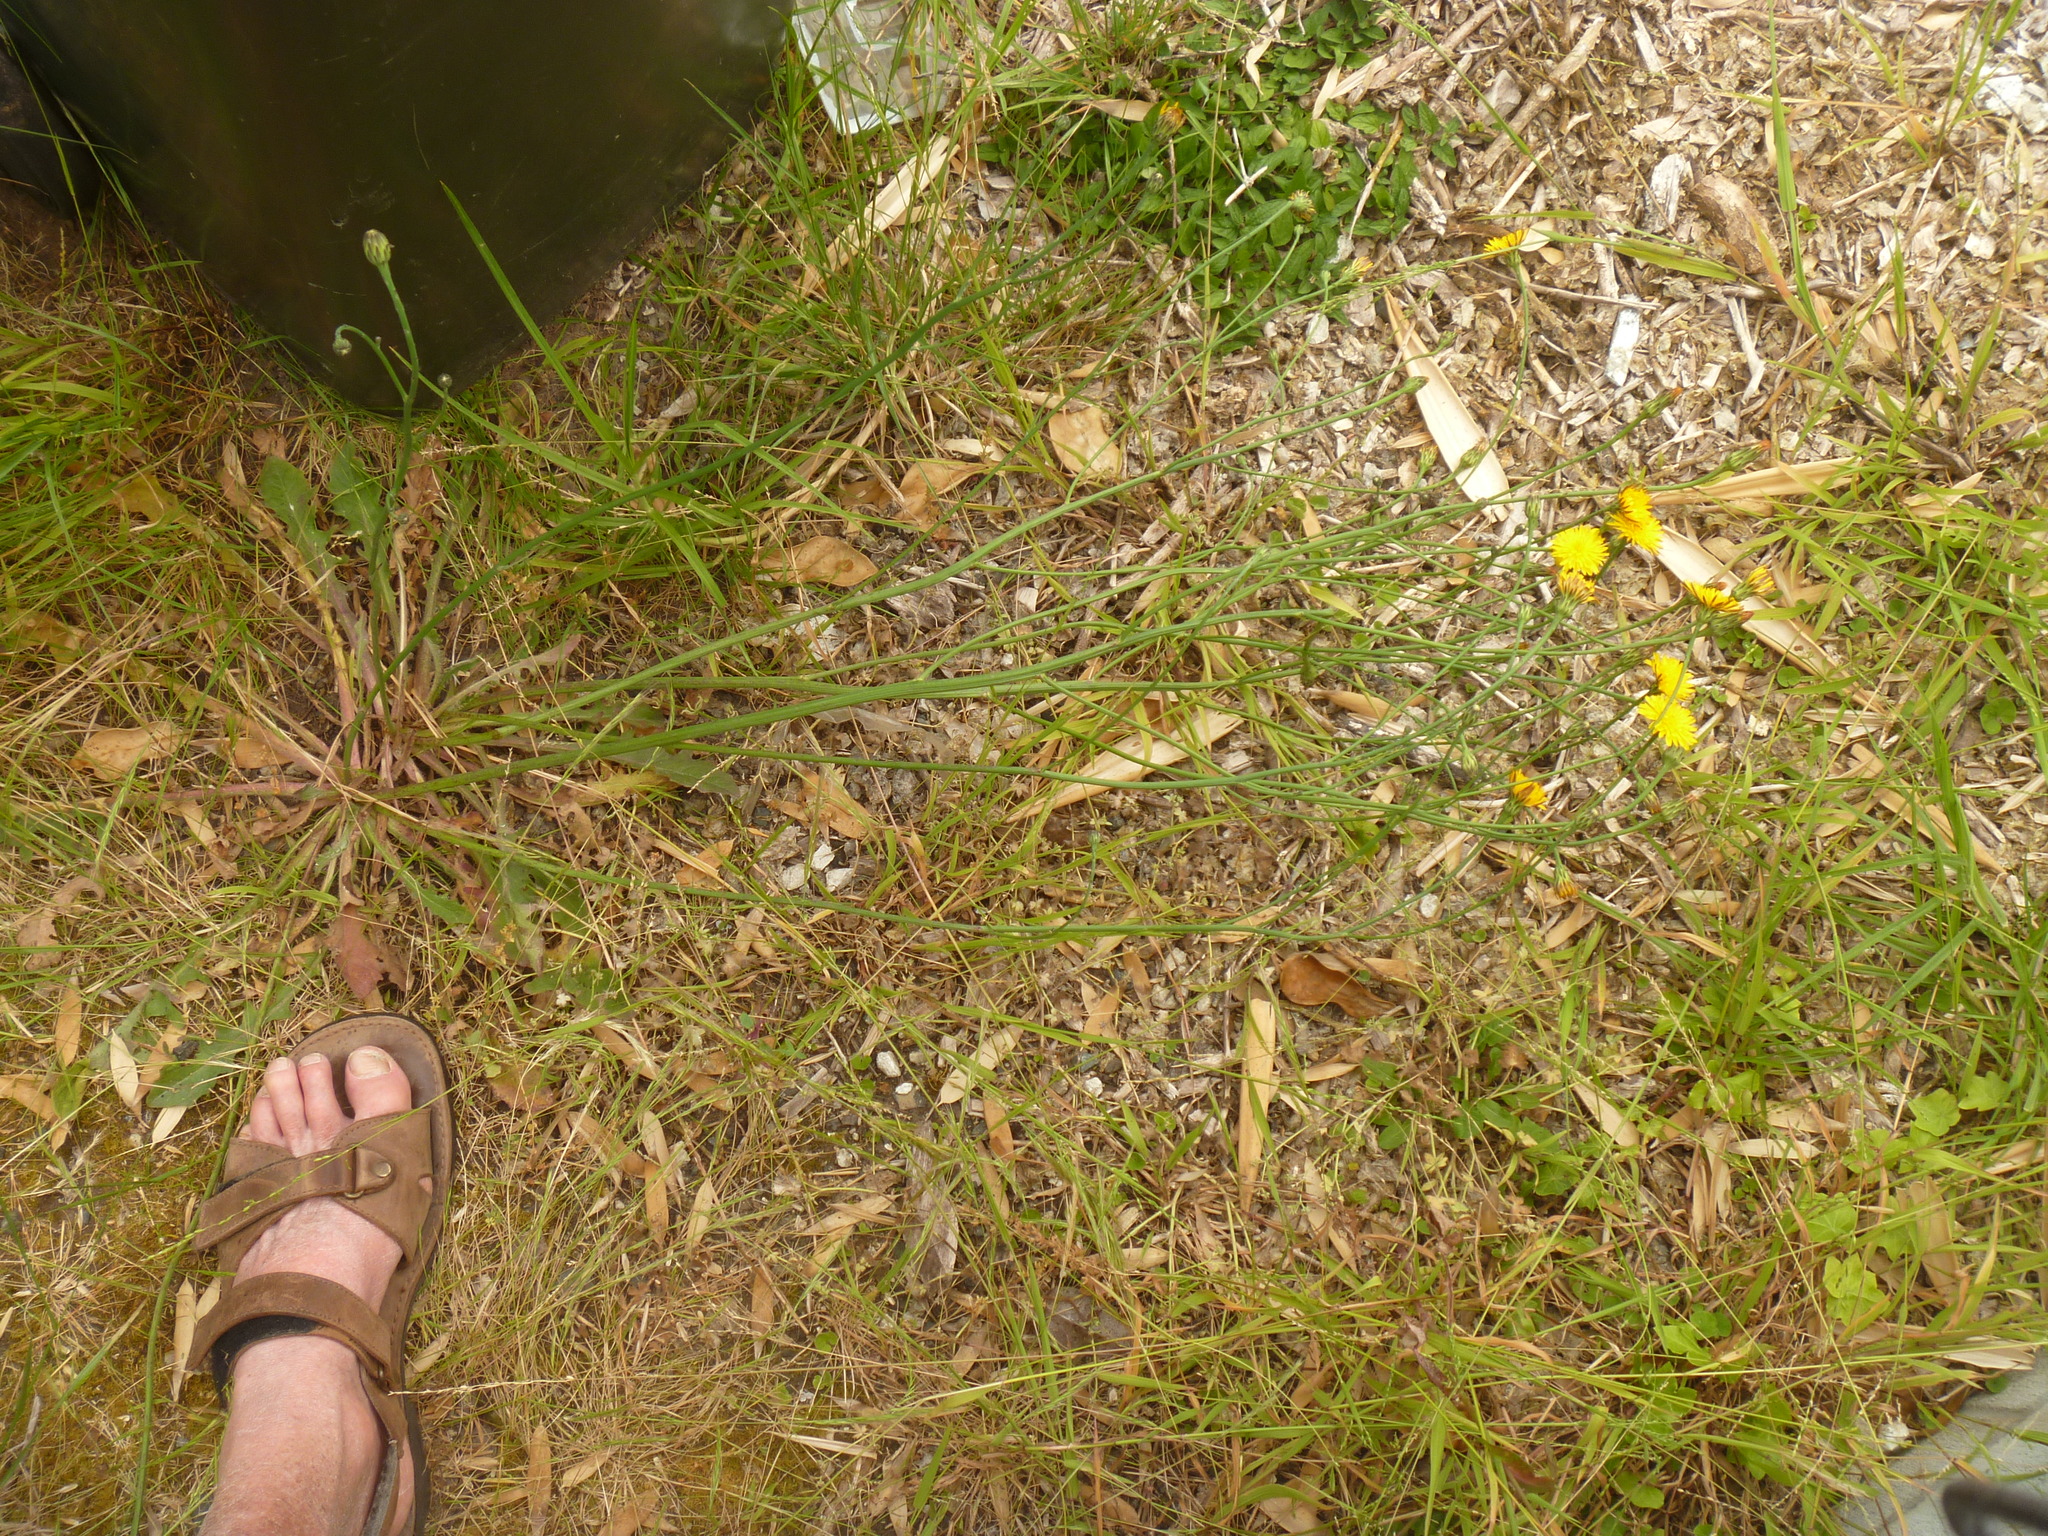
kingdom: Plantae
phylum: Tracheophyta
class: Magnoliopsida
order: Asterales
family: Asteraceae
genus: Hypochaeris
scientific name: Hypochaeris radicata
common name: Flatweed
